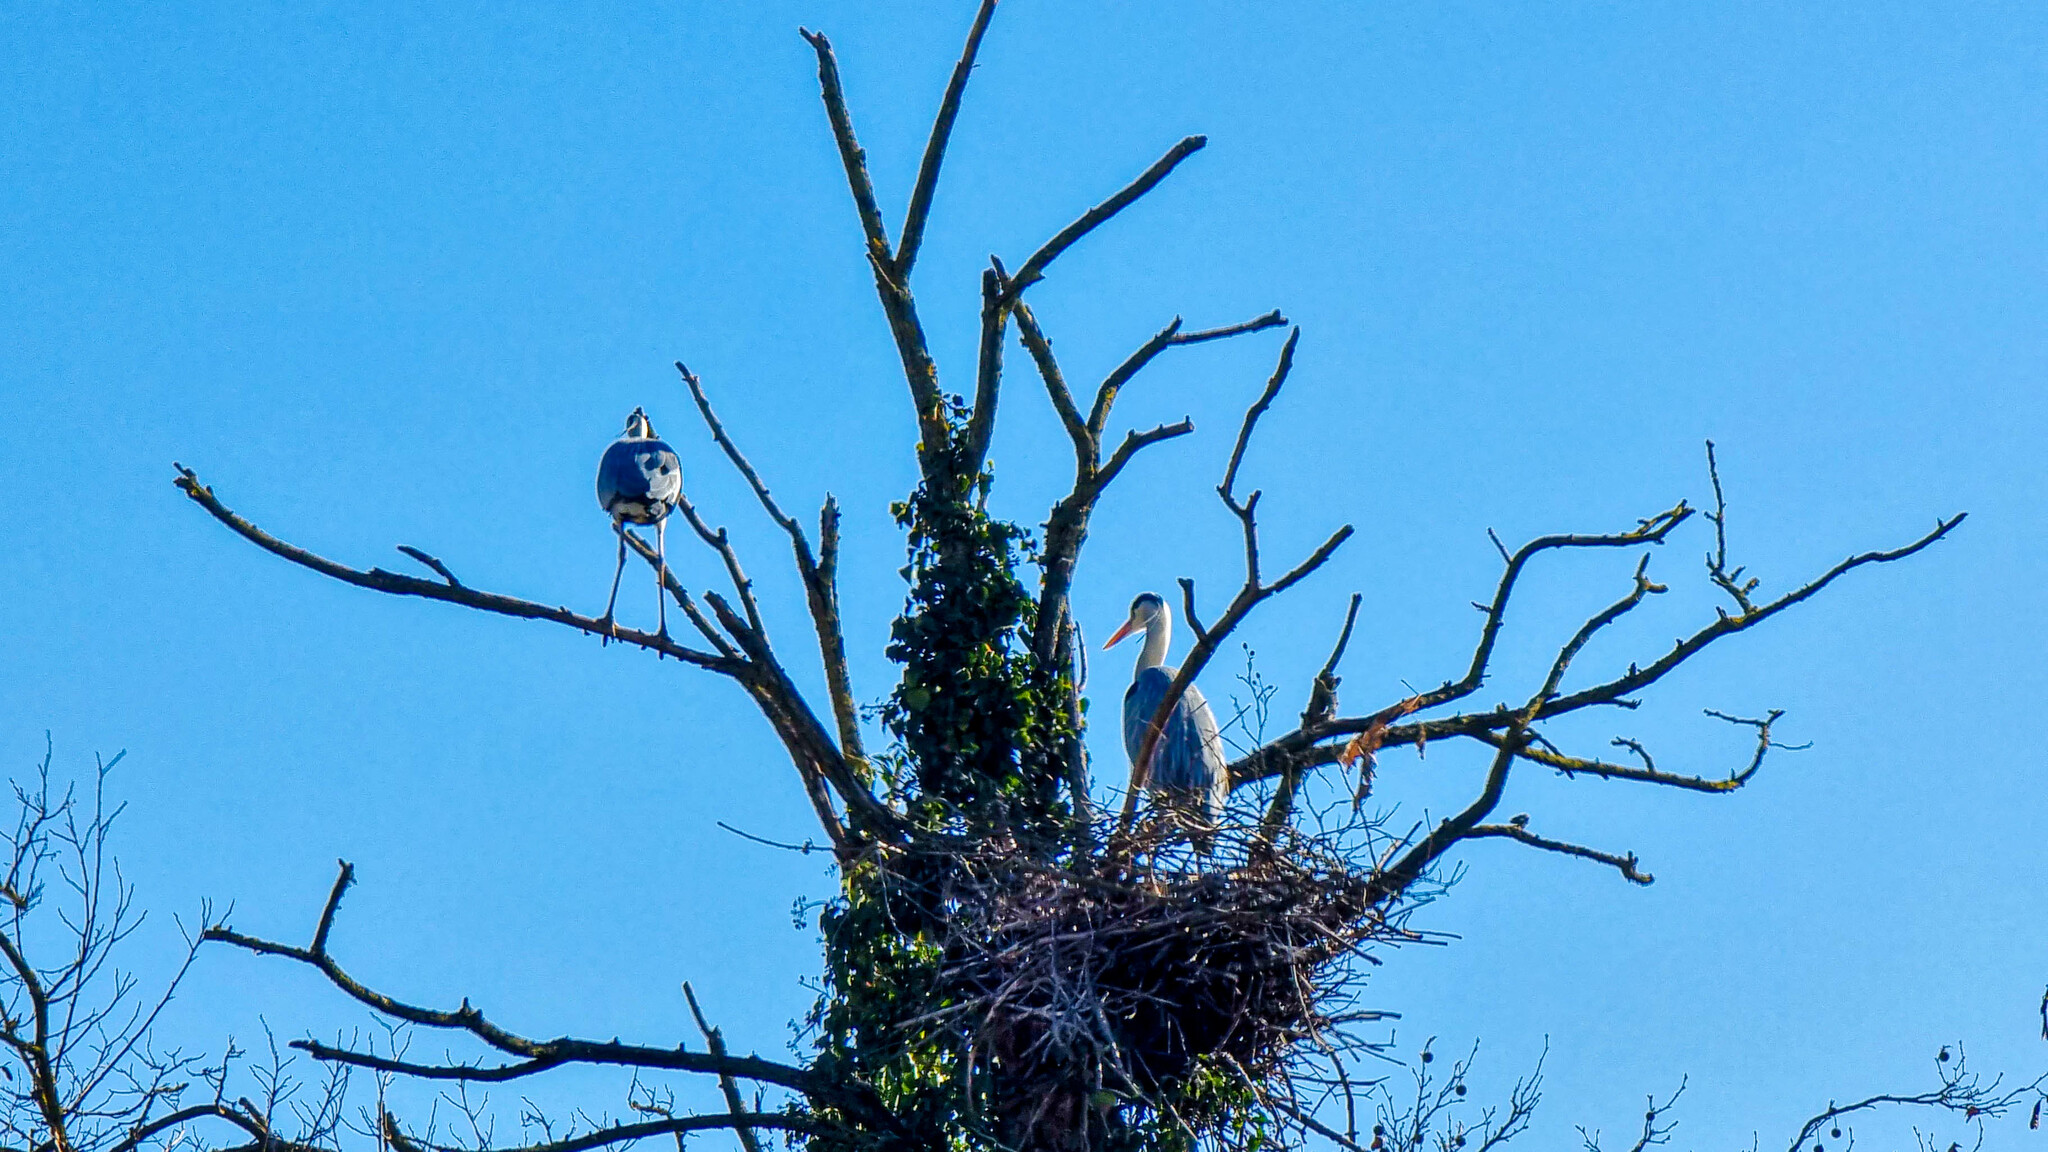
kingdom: Animalia
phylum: Chordata
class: Aves
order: Pelecaniformes
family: Ardeidae
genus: Ardea
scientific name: Ardea cinerea
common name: Grey heron
